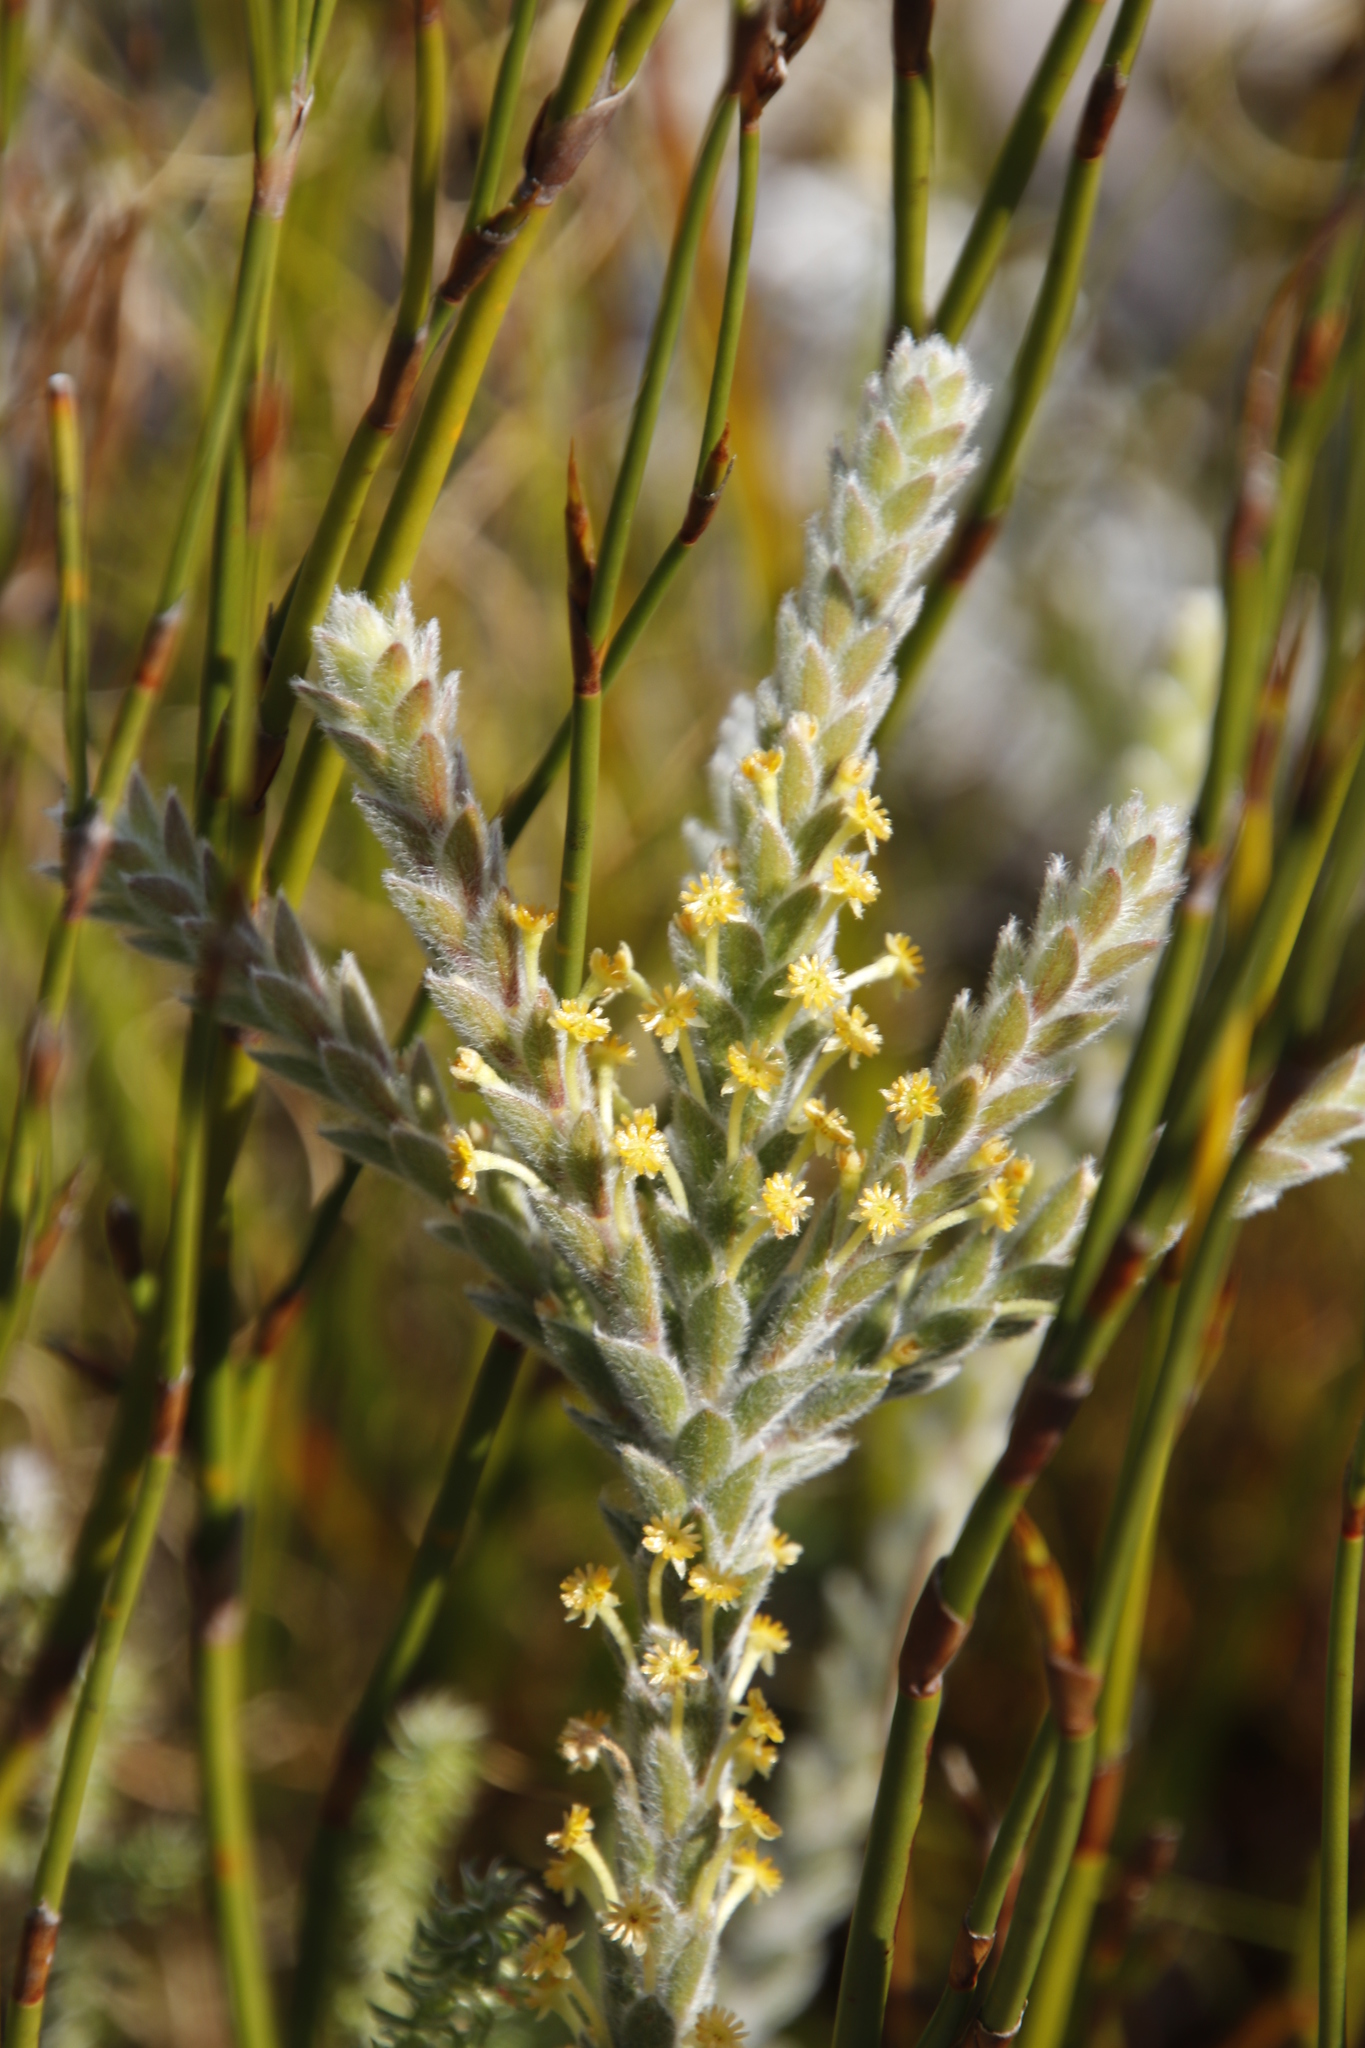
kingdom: Plantae
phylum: Tracheophyta
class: Magnoliopsida
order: Malvales
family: Thymelaeaceae
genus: Struthiola
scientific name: Struthiola tomentosa
